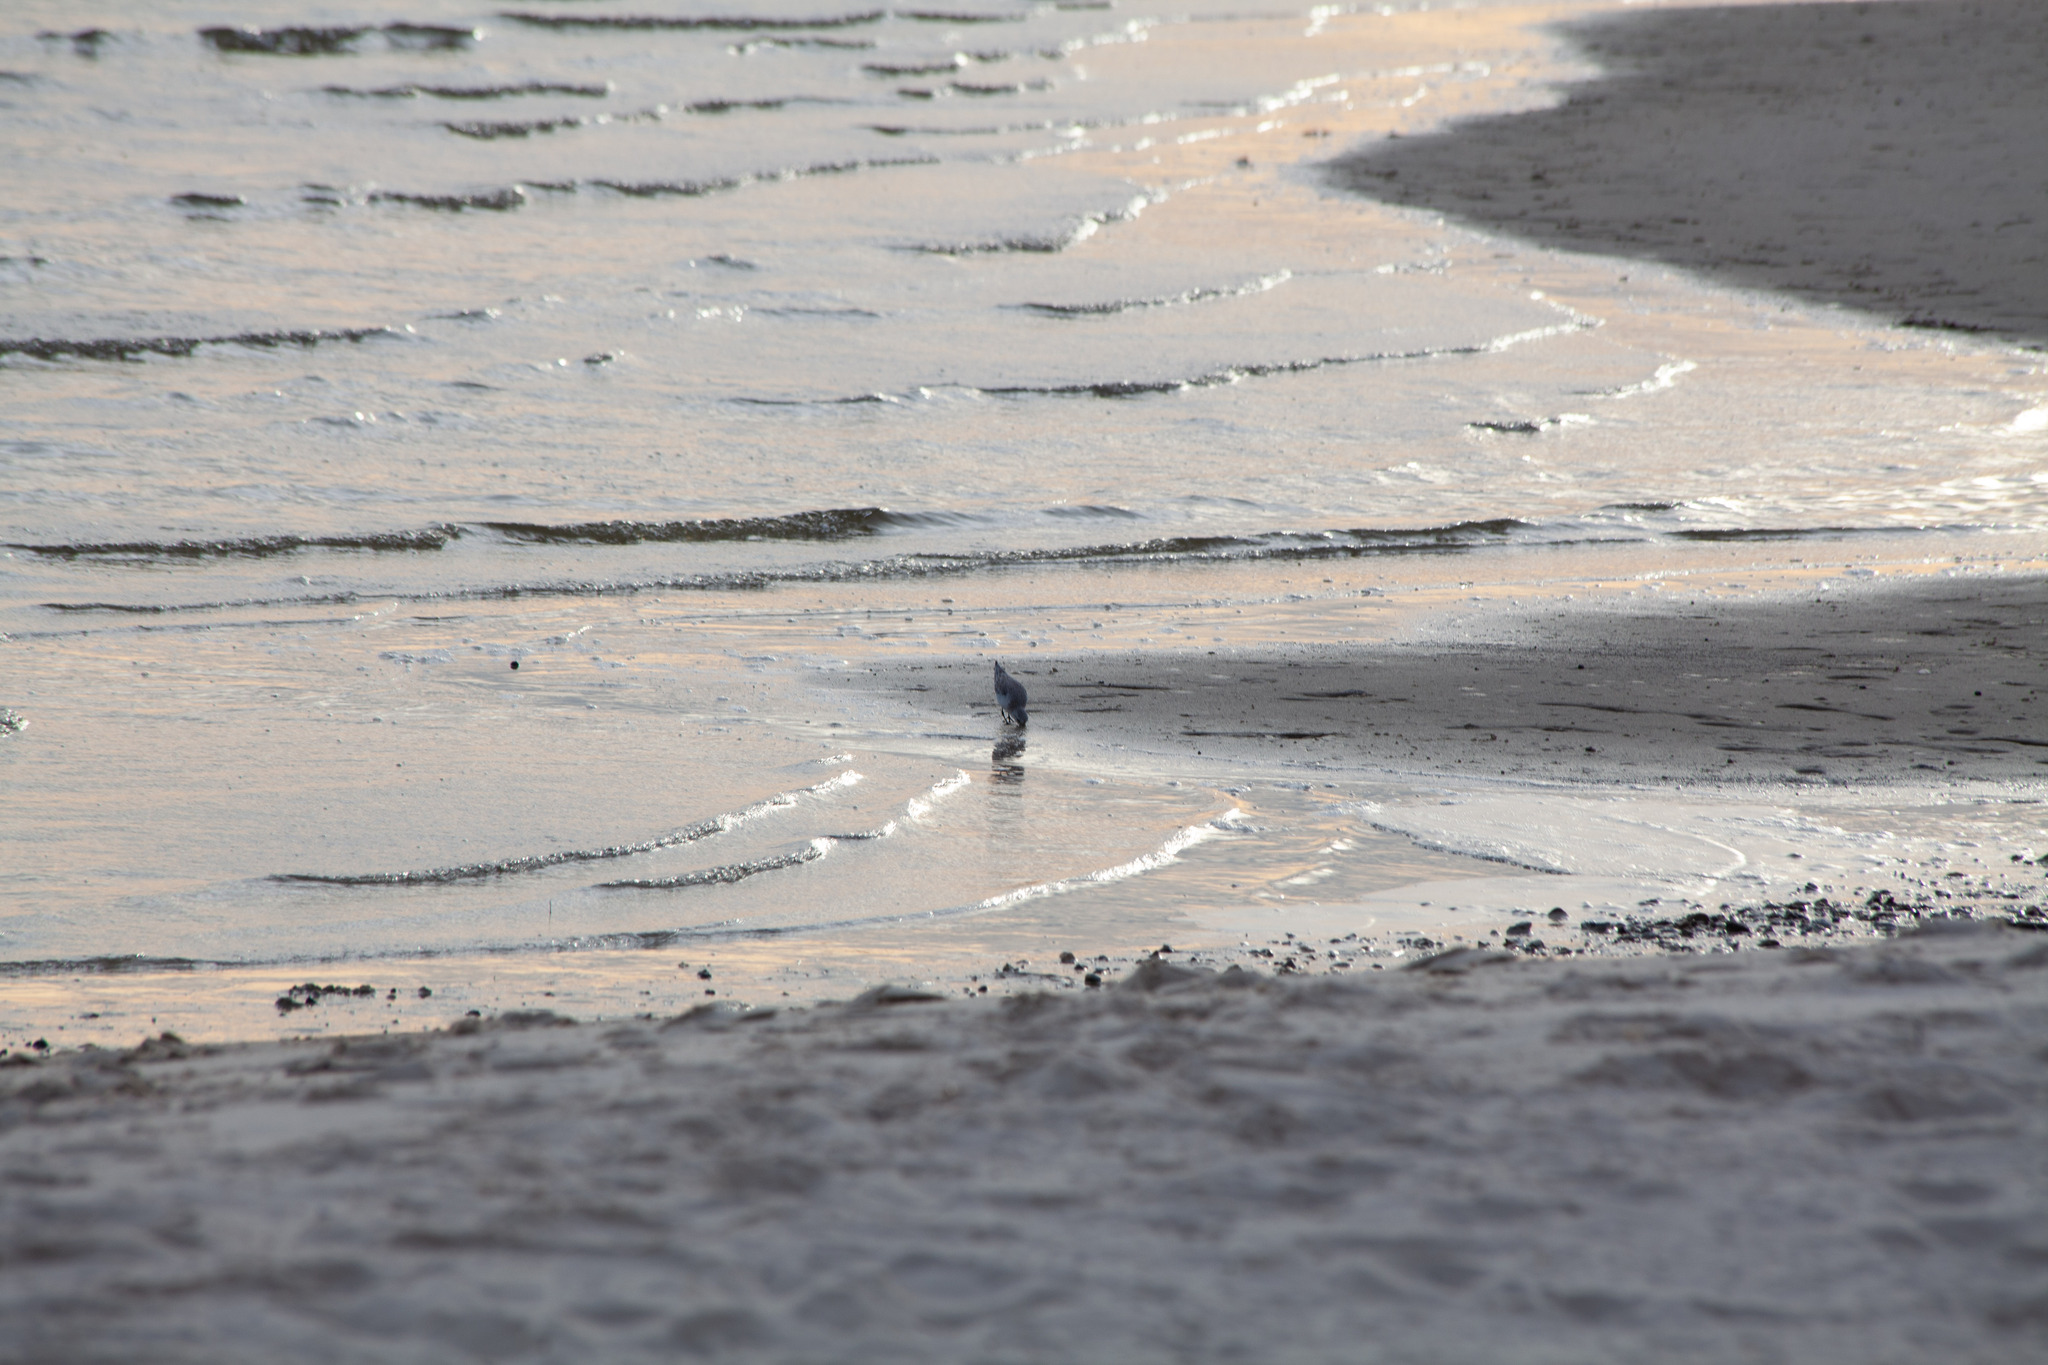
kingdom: Animalia
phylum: Chordata
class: Aves
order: Charadriiformes
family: Scolopacidae
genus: Calidris
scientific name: Calidris alba
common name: Sanderling
